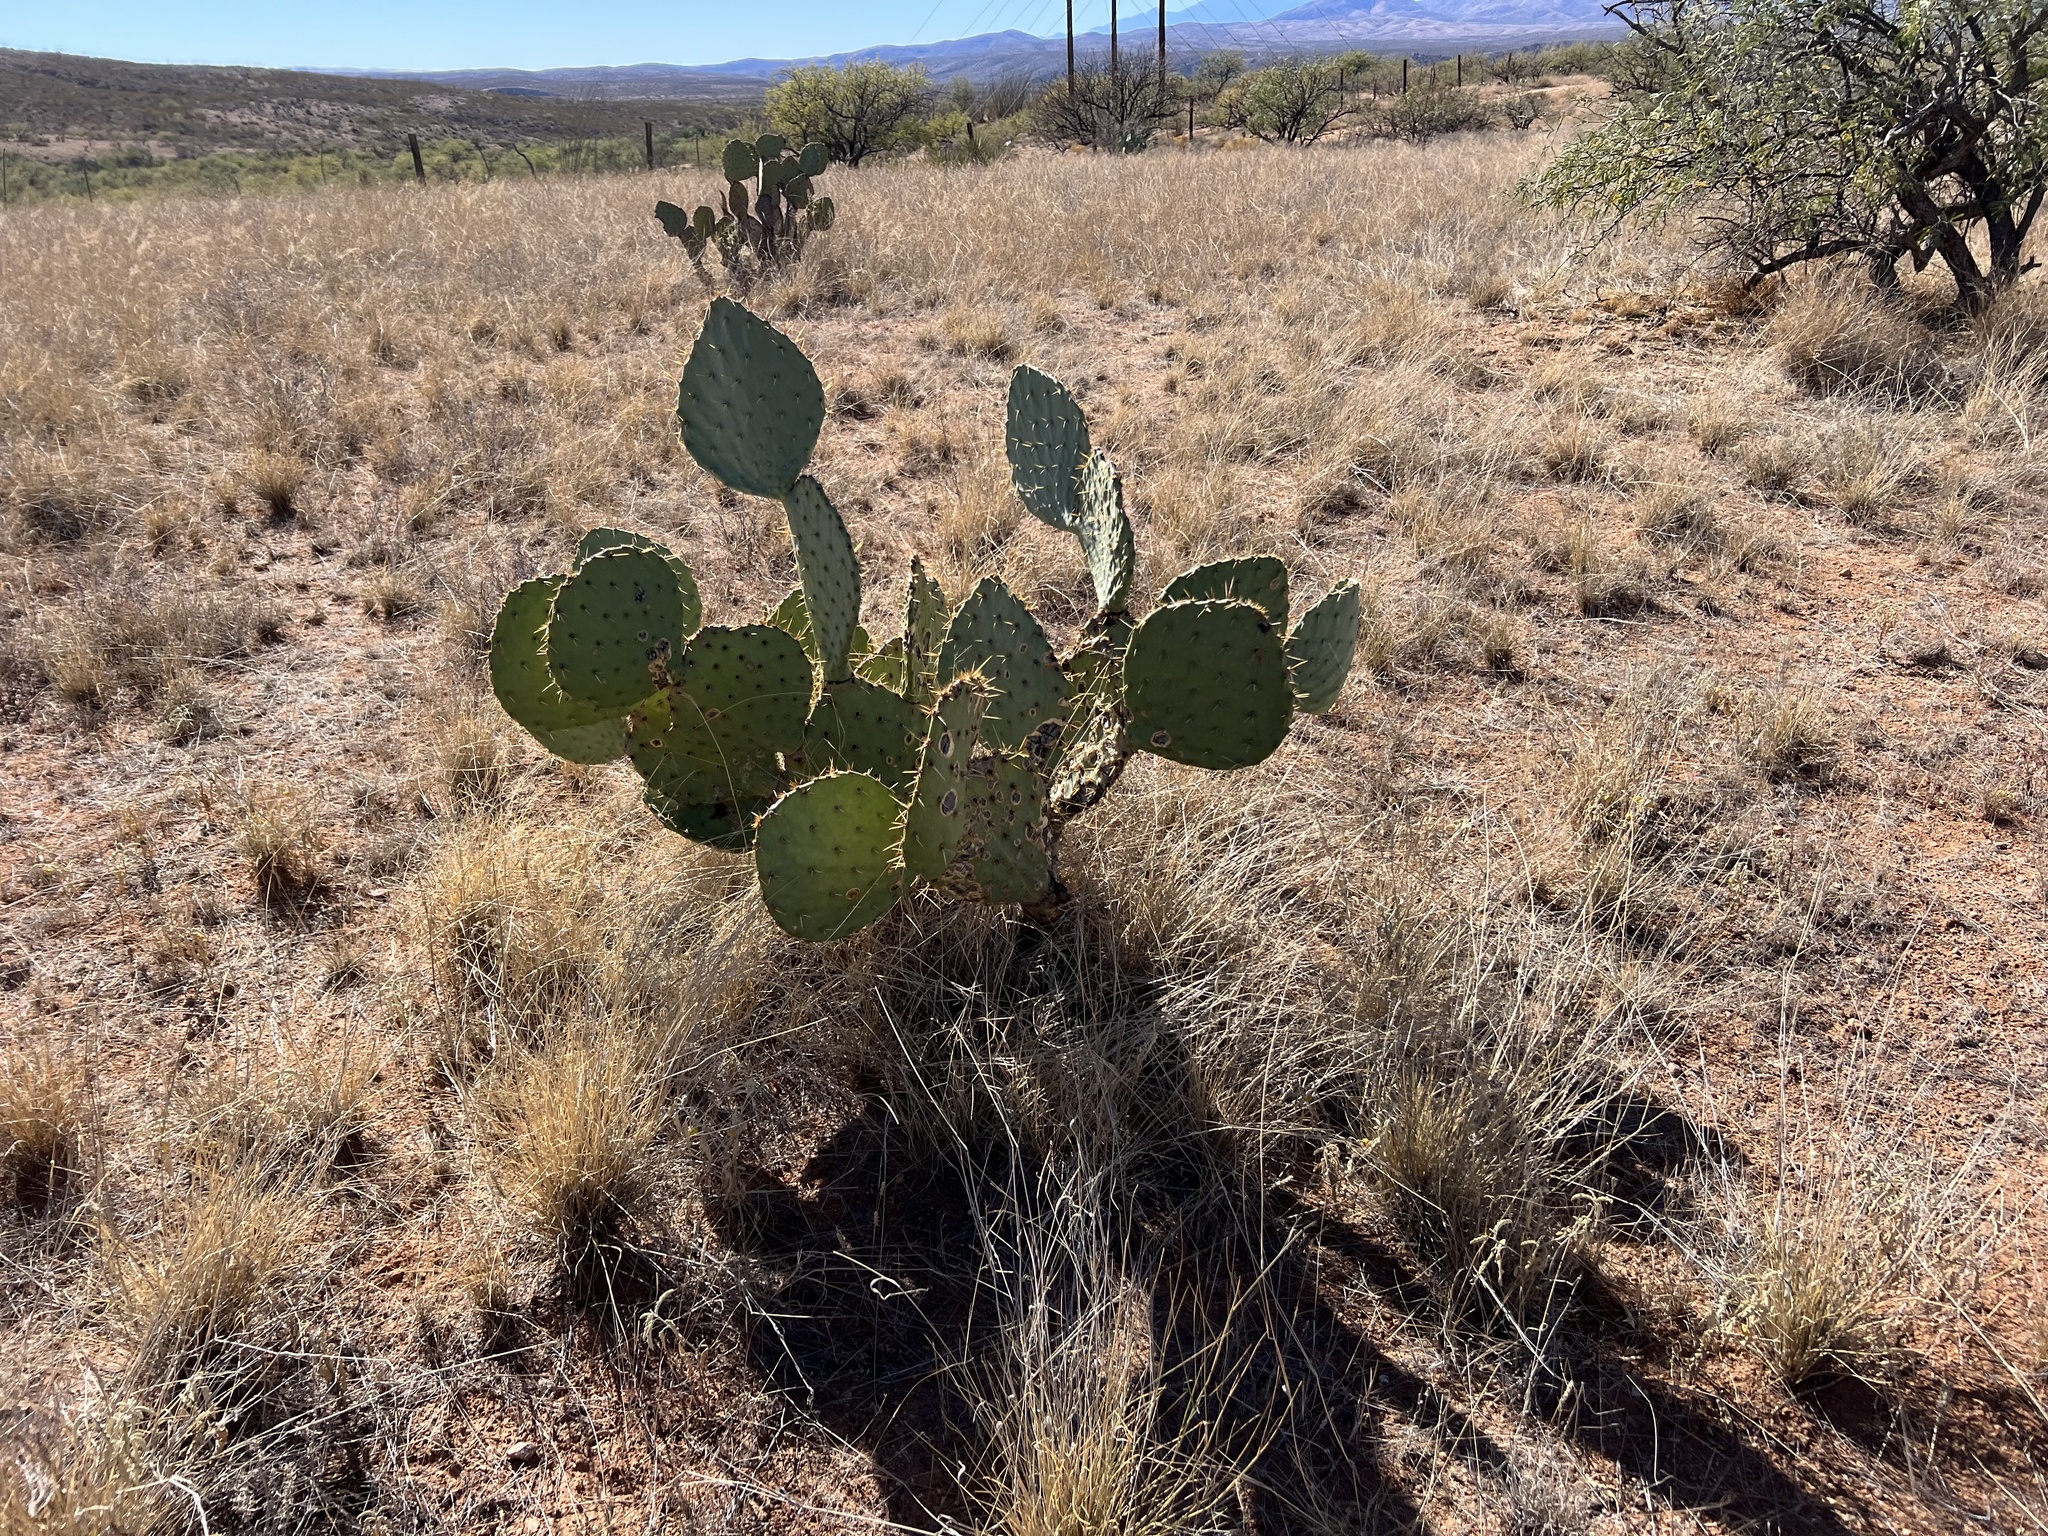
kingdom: Plantae
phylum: Tracheophyta
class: Magnoliopsida
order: Caryophyllales
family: Cactaceae
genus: Opuntia
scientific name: Opuntia engelmannii
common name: Cactus-apple
